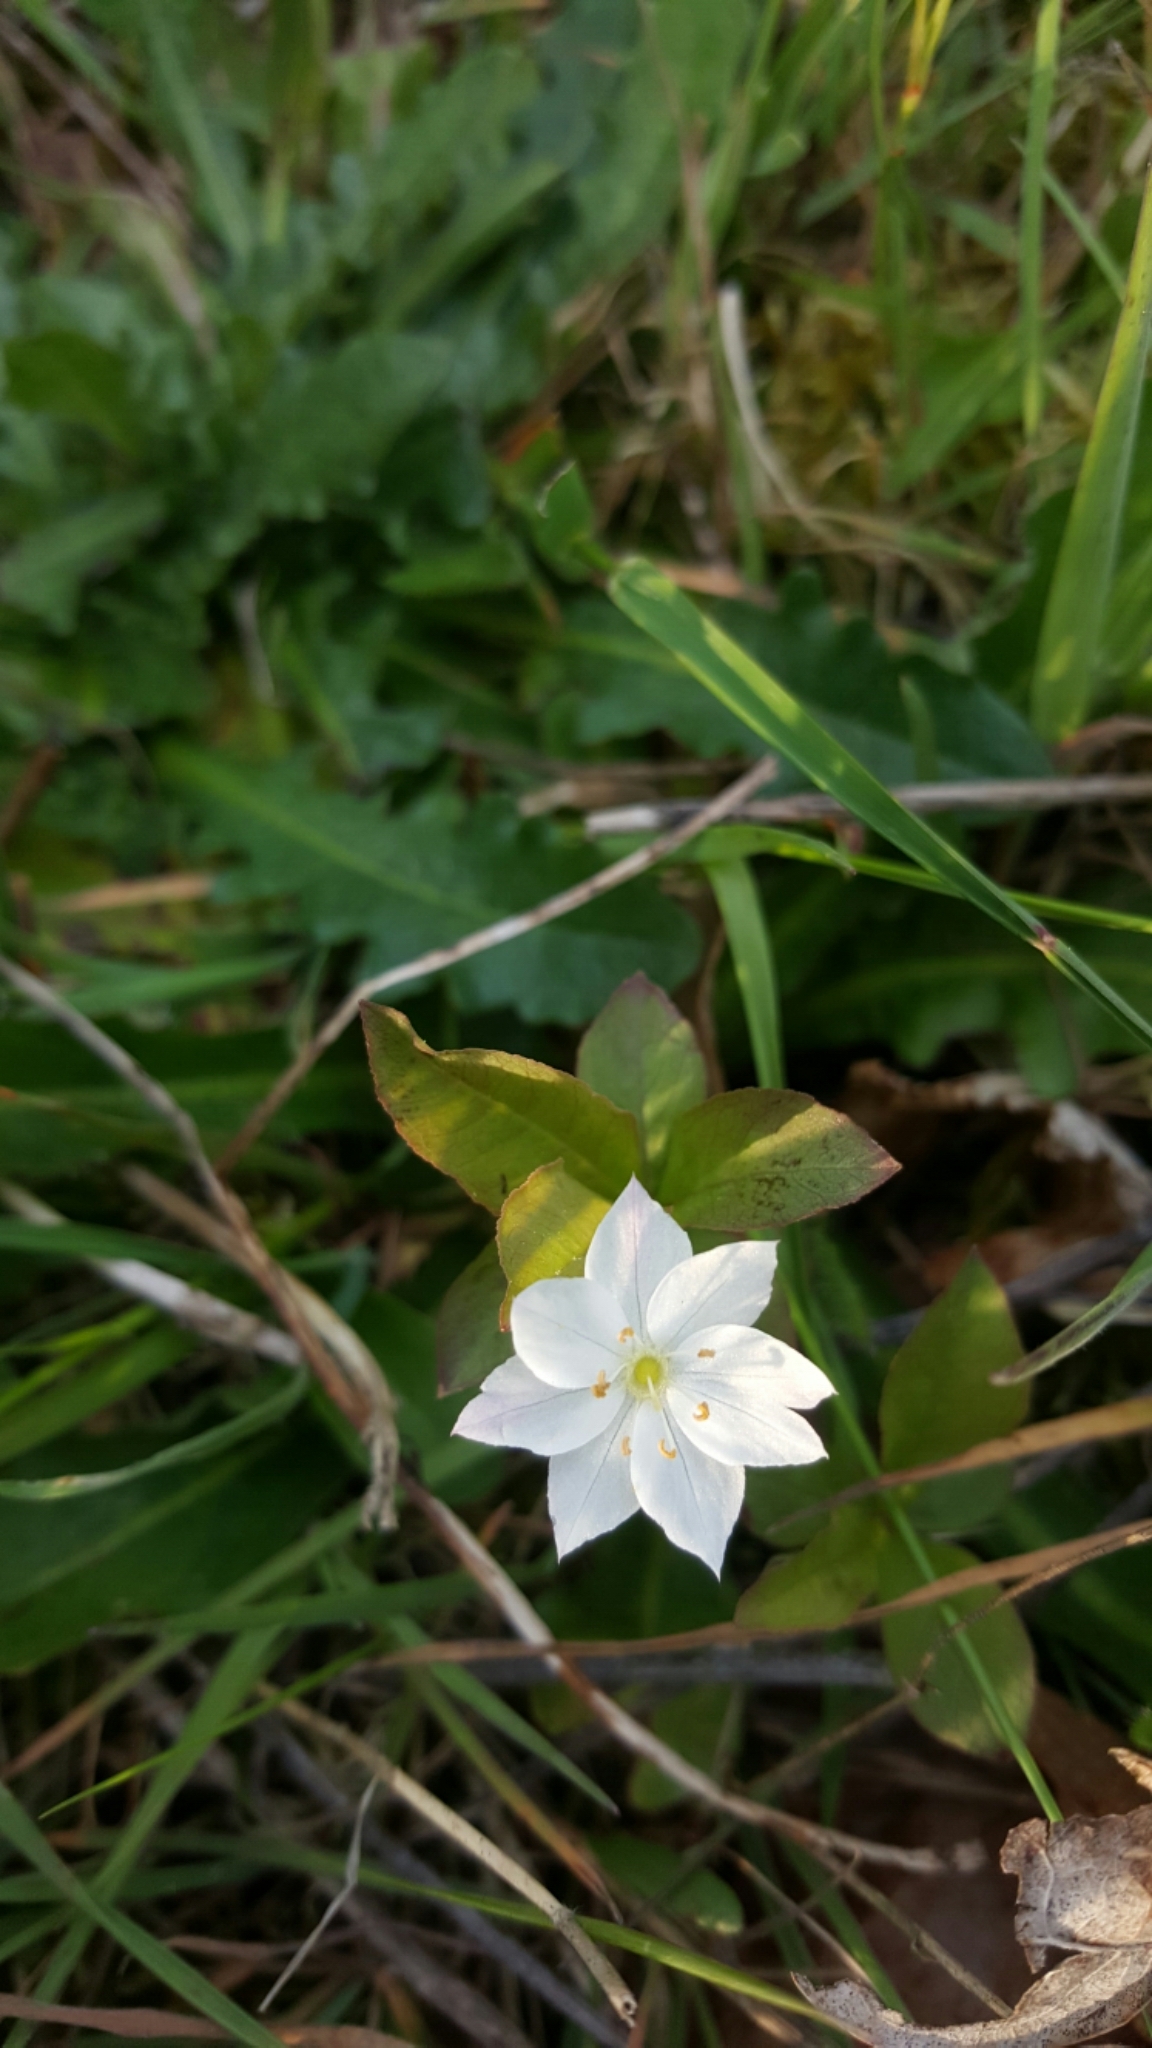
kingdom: Plantae
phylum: Tracheophyta
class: Magnoliopsida
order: Ericales
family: Primulaceae
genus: Lysimachia
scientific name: Lysimachia europaea
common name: Arctic starflower
